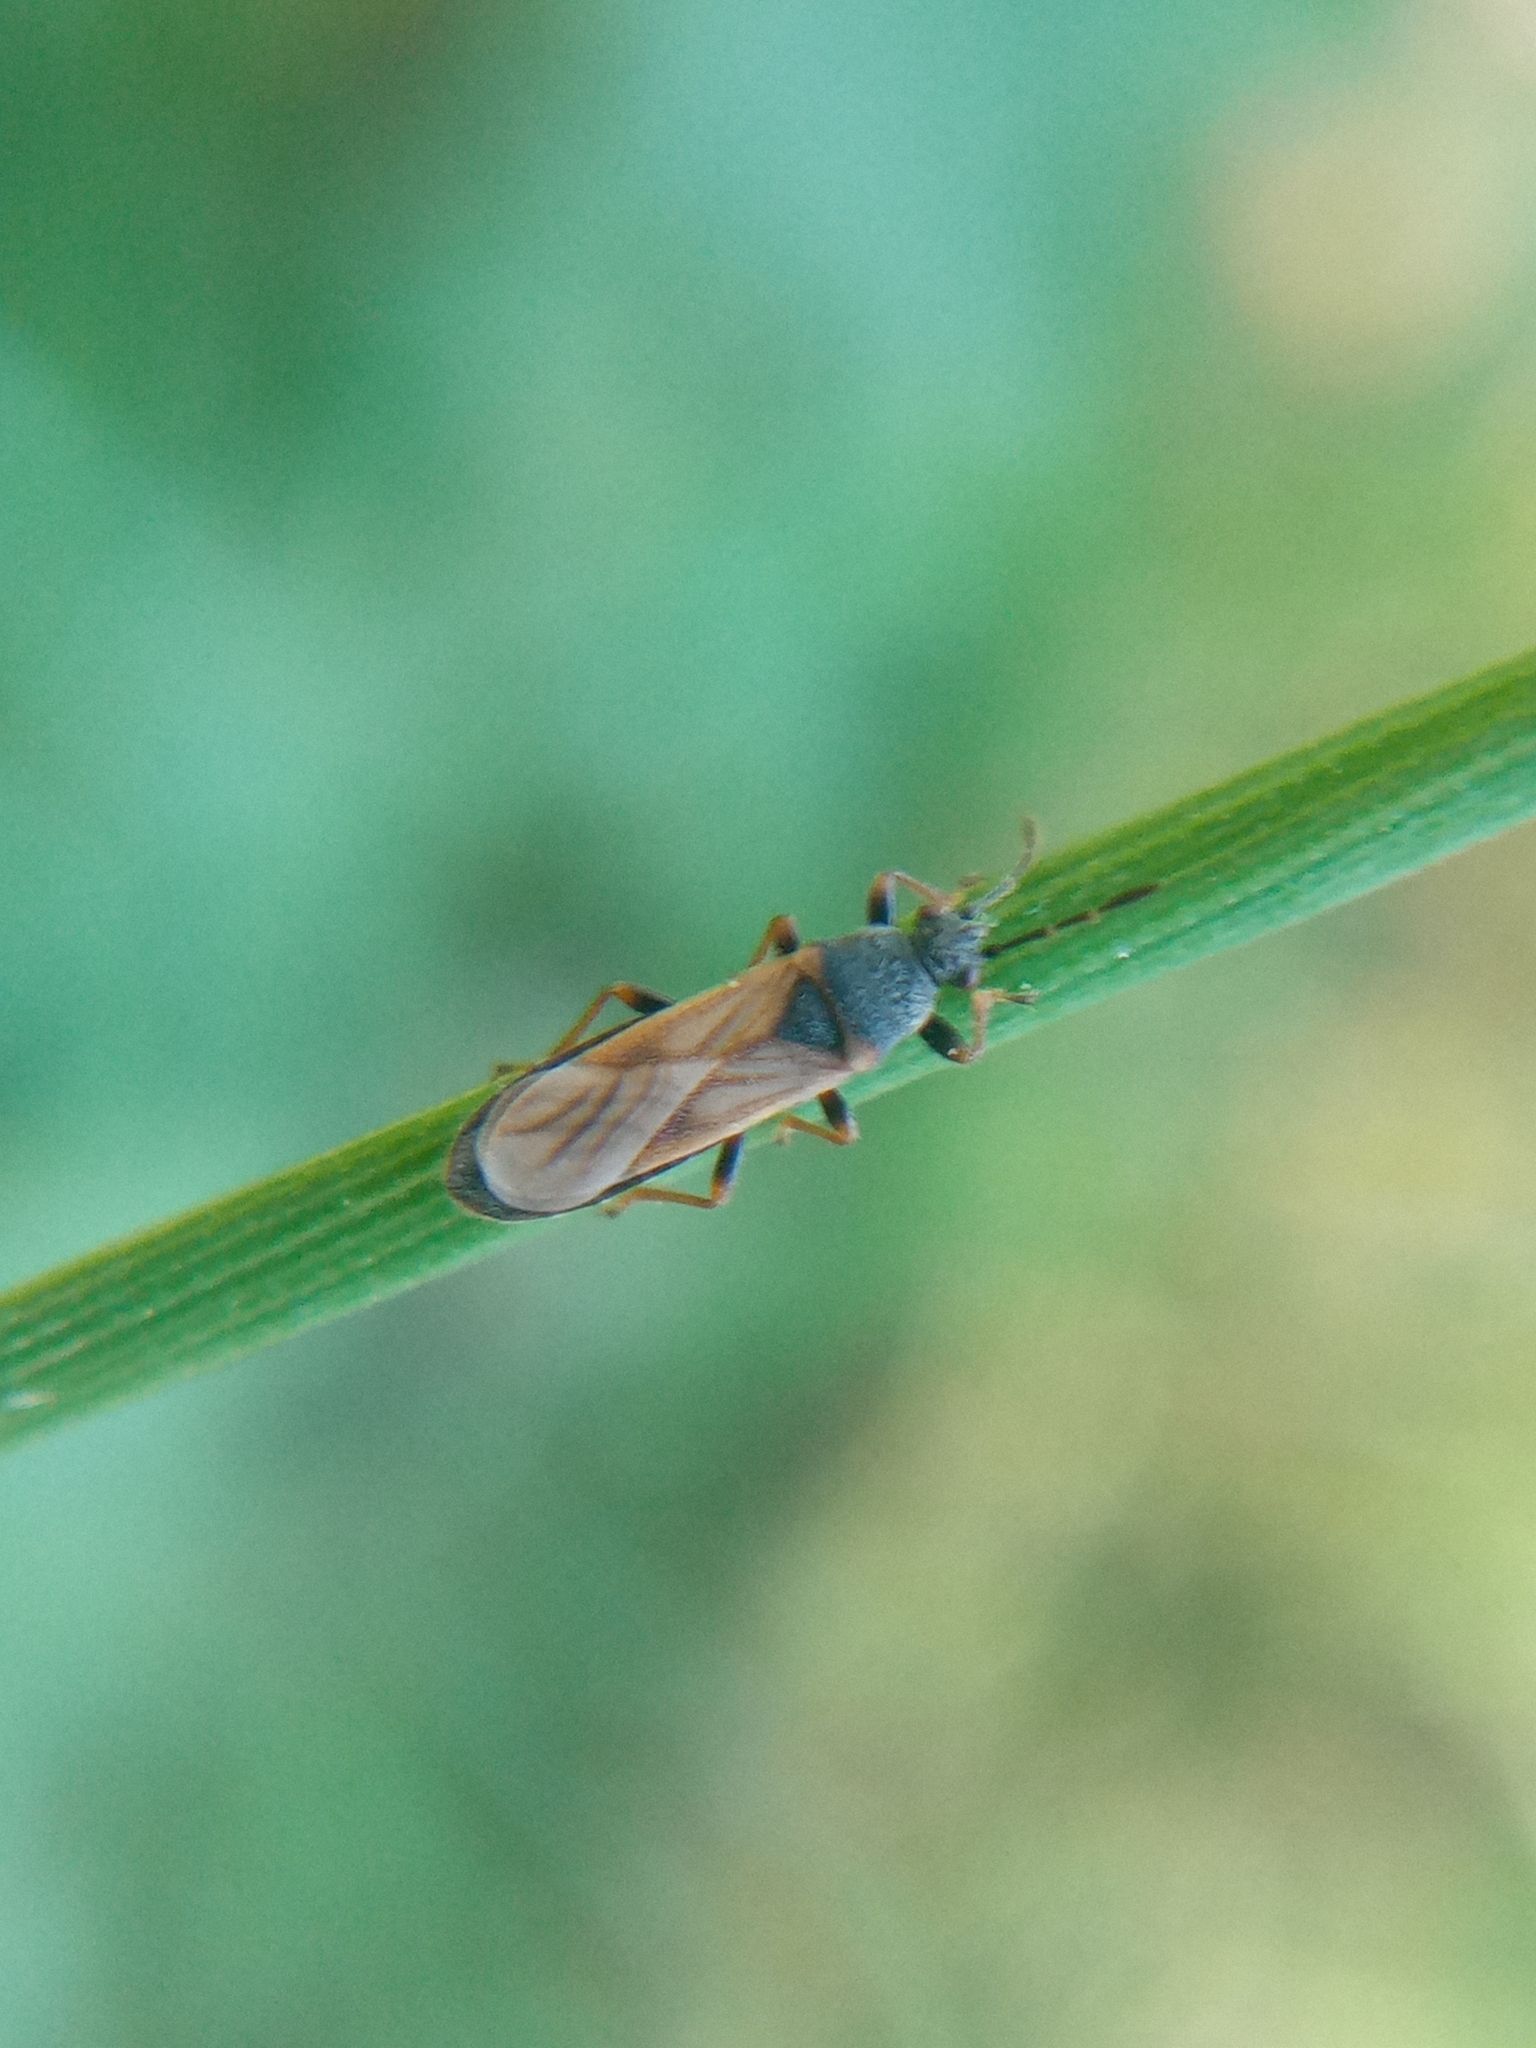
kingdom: Animalia
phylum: Arthropoda
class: Insecta
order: Hemiptera
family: Blissidae
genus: Ischnodemus
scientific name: Ischnodemus sabuleti
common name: European cinchbug
